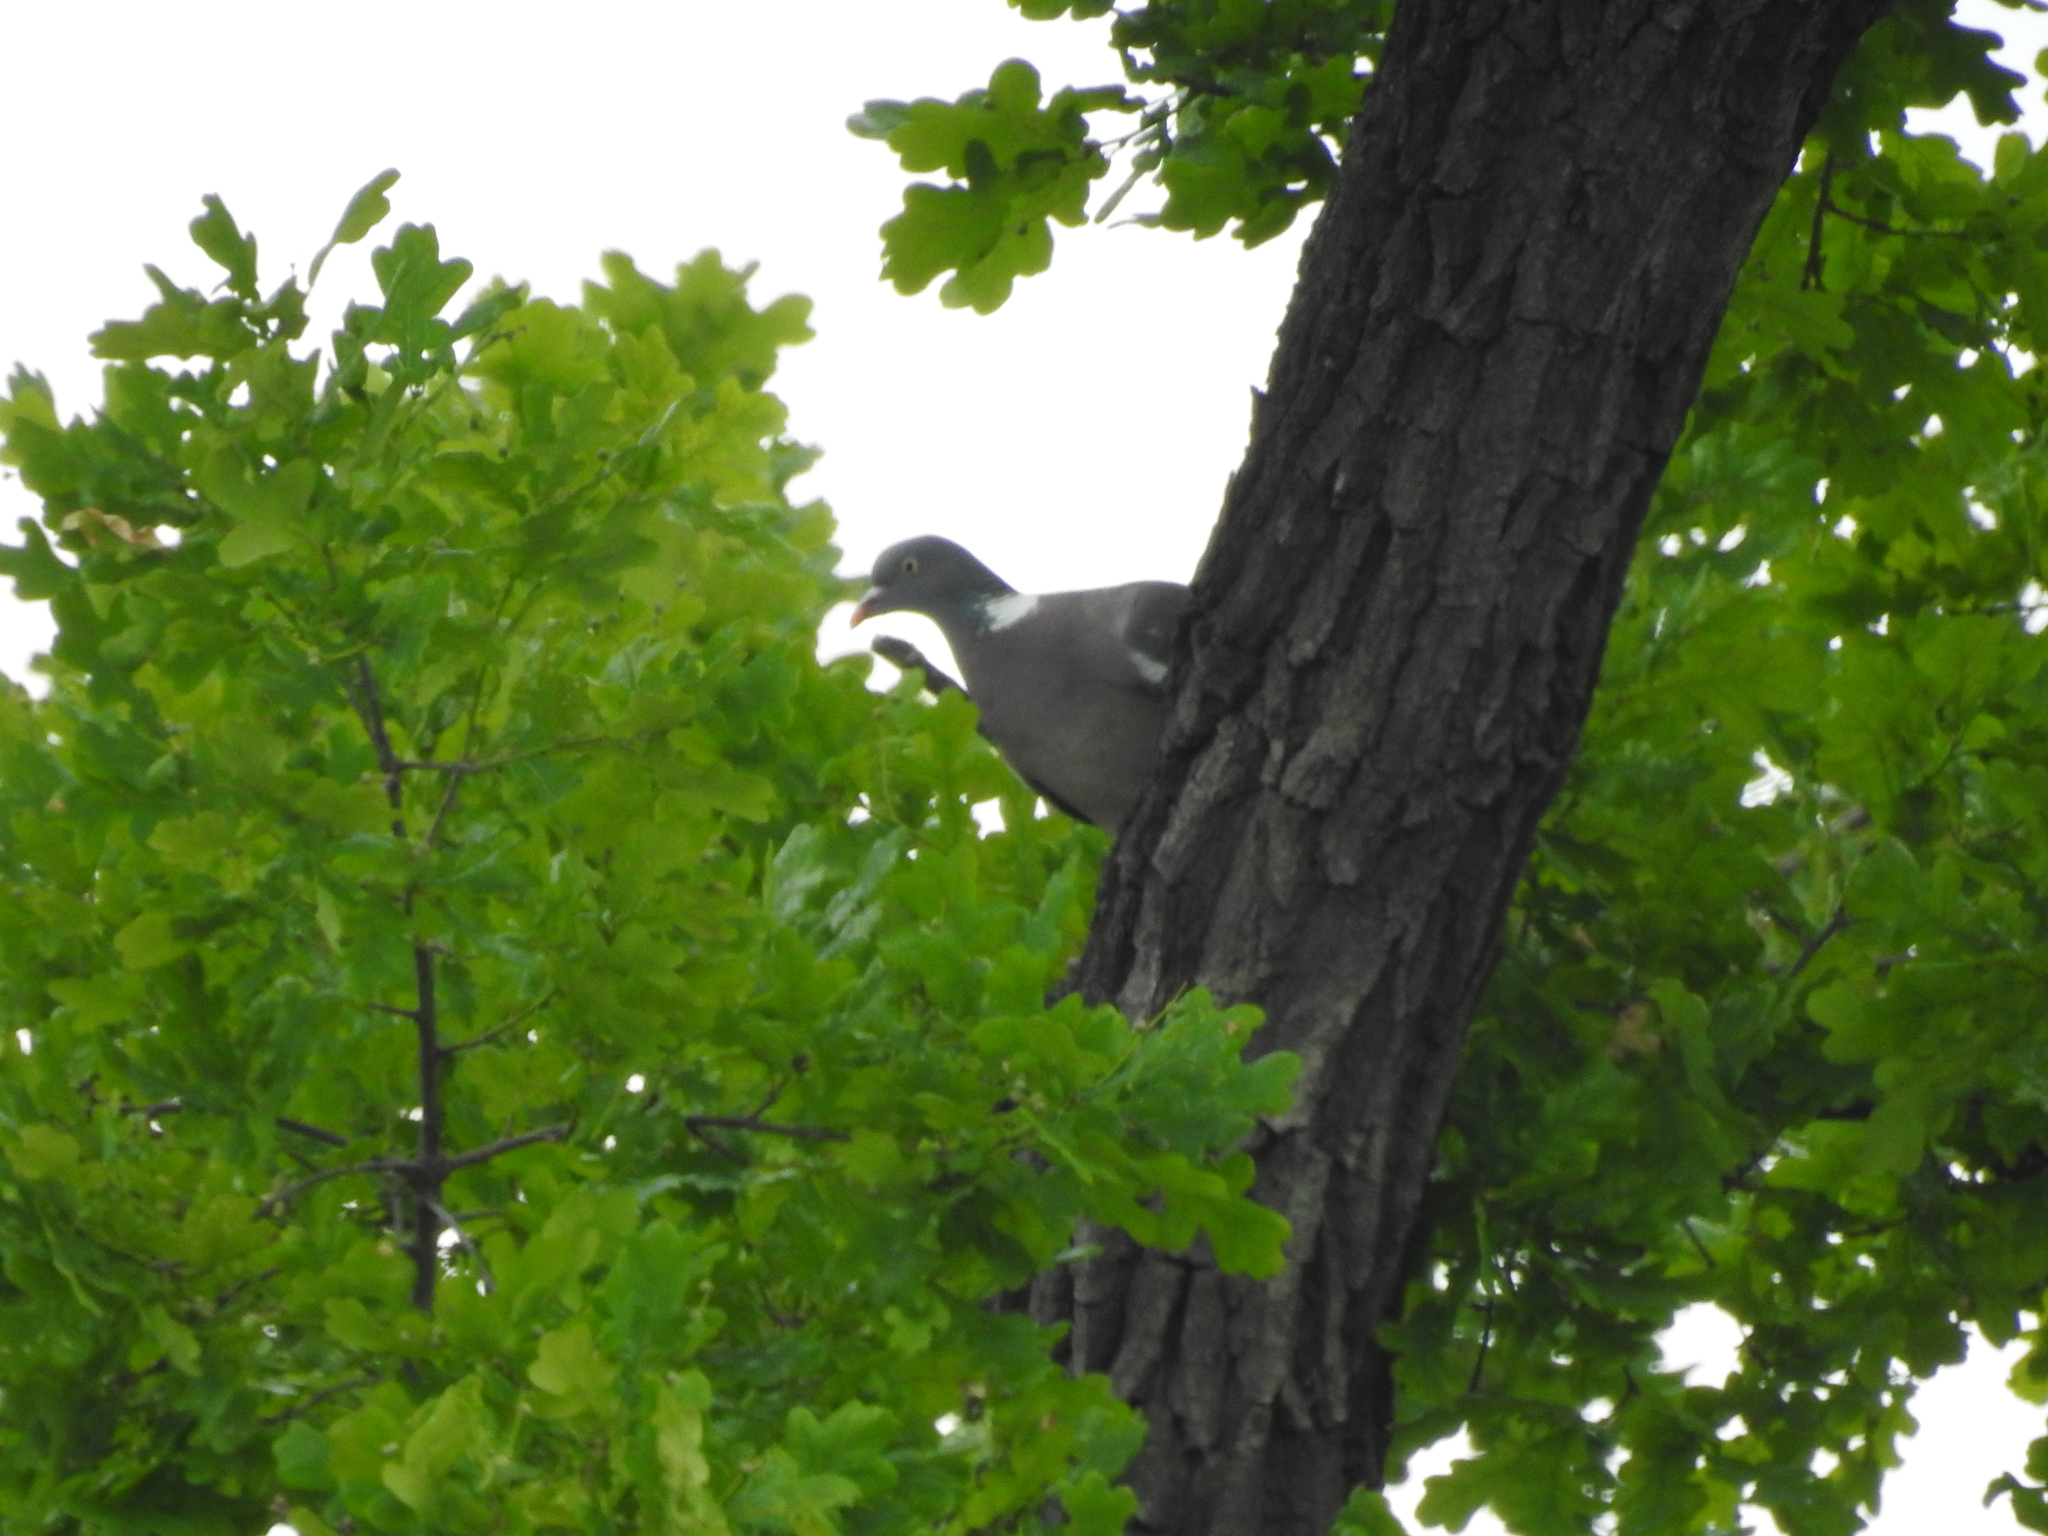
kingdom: Animalia
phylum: Chordata
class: Aves
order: Columbiformes
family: Columbidae
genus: Columba
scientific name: Columba palumbus
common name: Common wood pigeon
